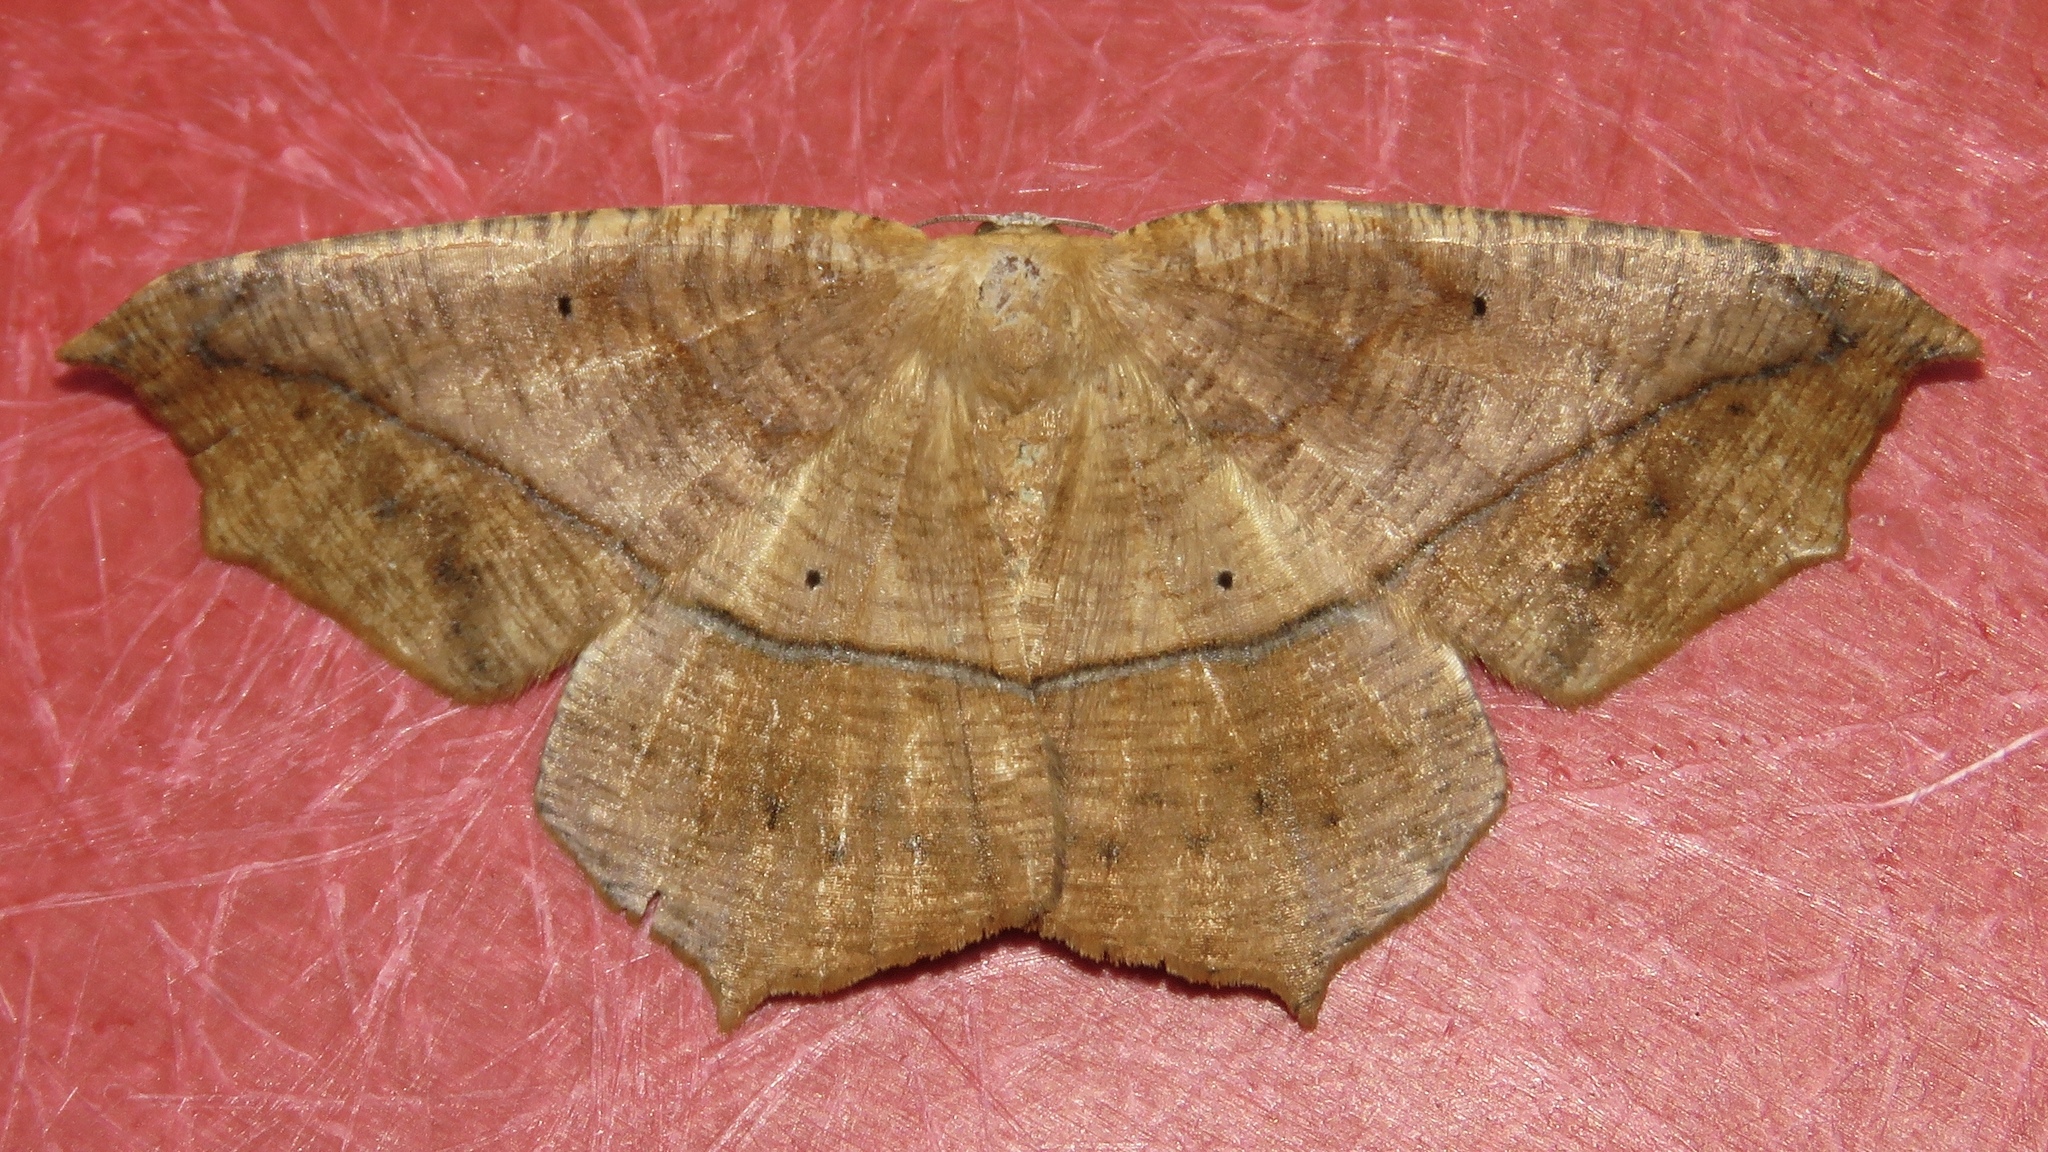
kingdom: Animalia
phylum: Arthropoda
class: Insecta
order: Lepidoptera
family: Geometridae
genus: Prochoerodes
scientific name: Prochoerodes lineola
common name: Large maple spanworm
